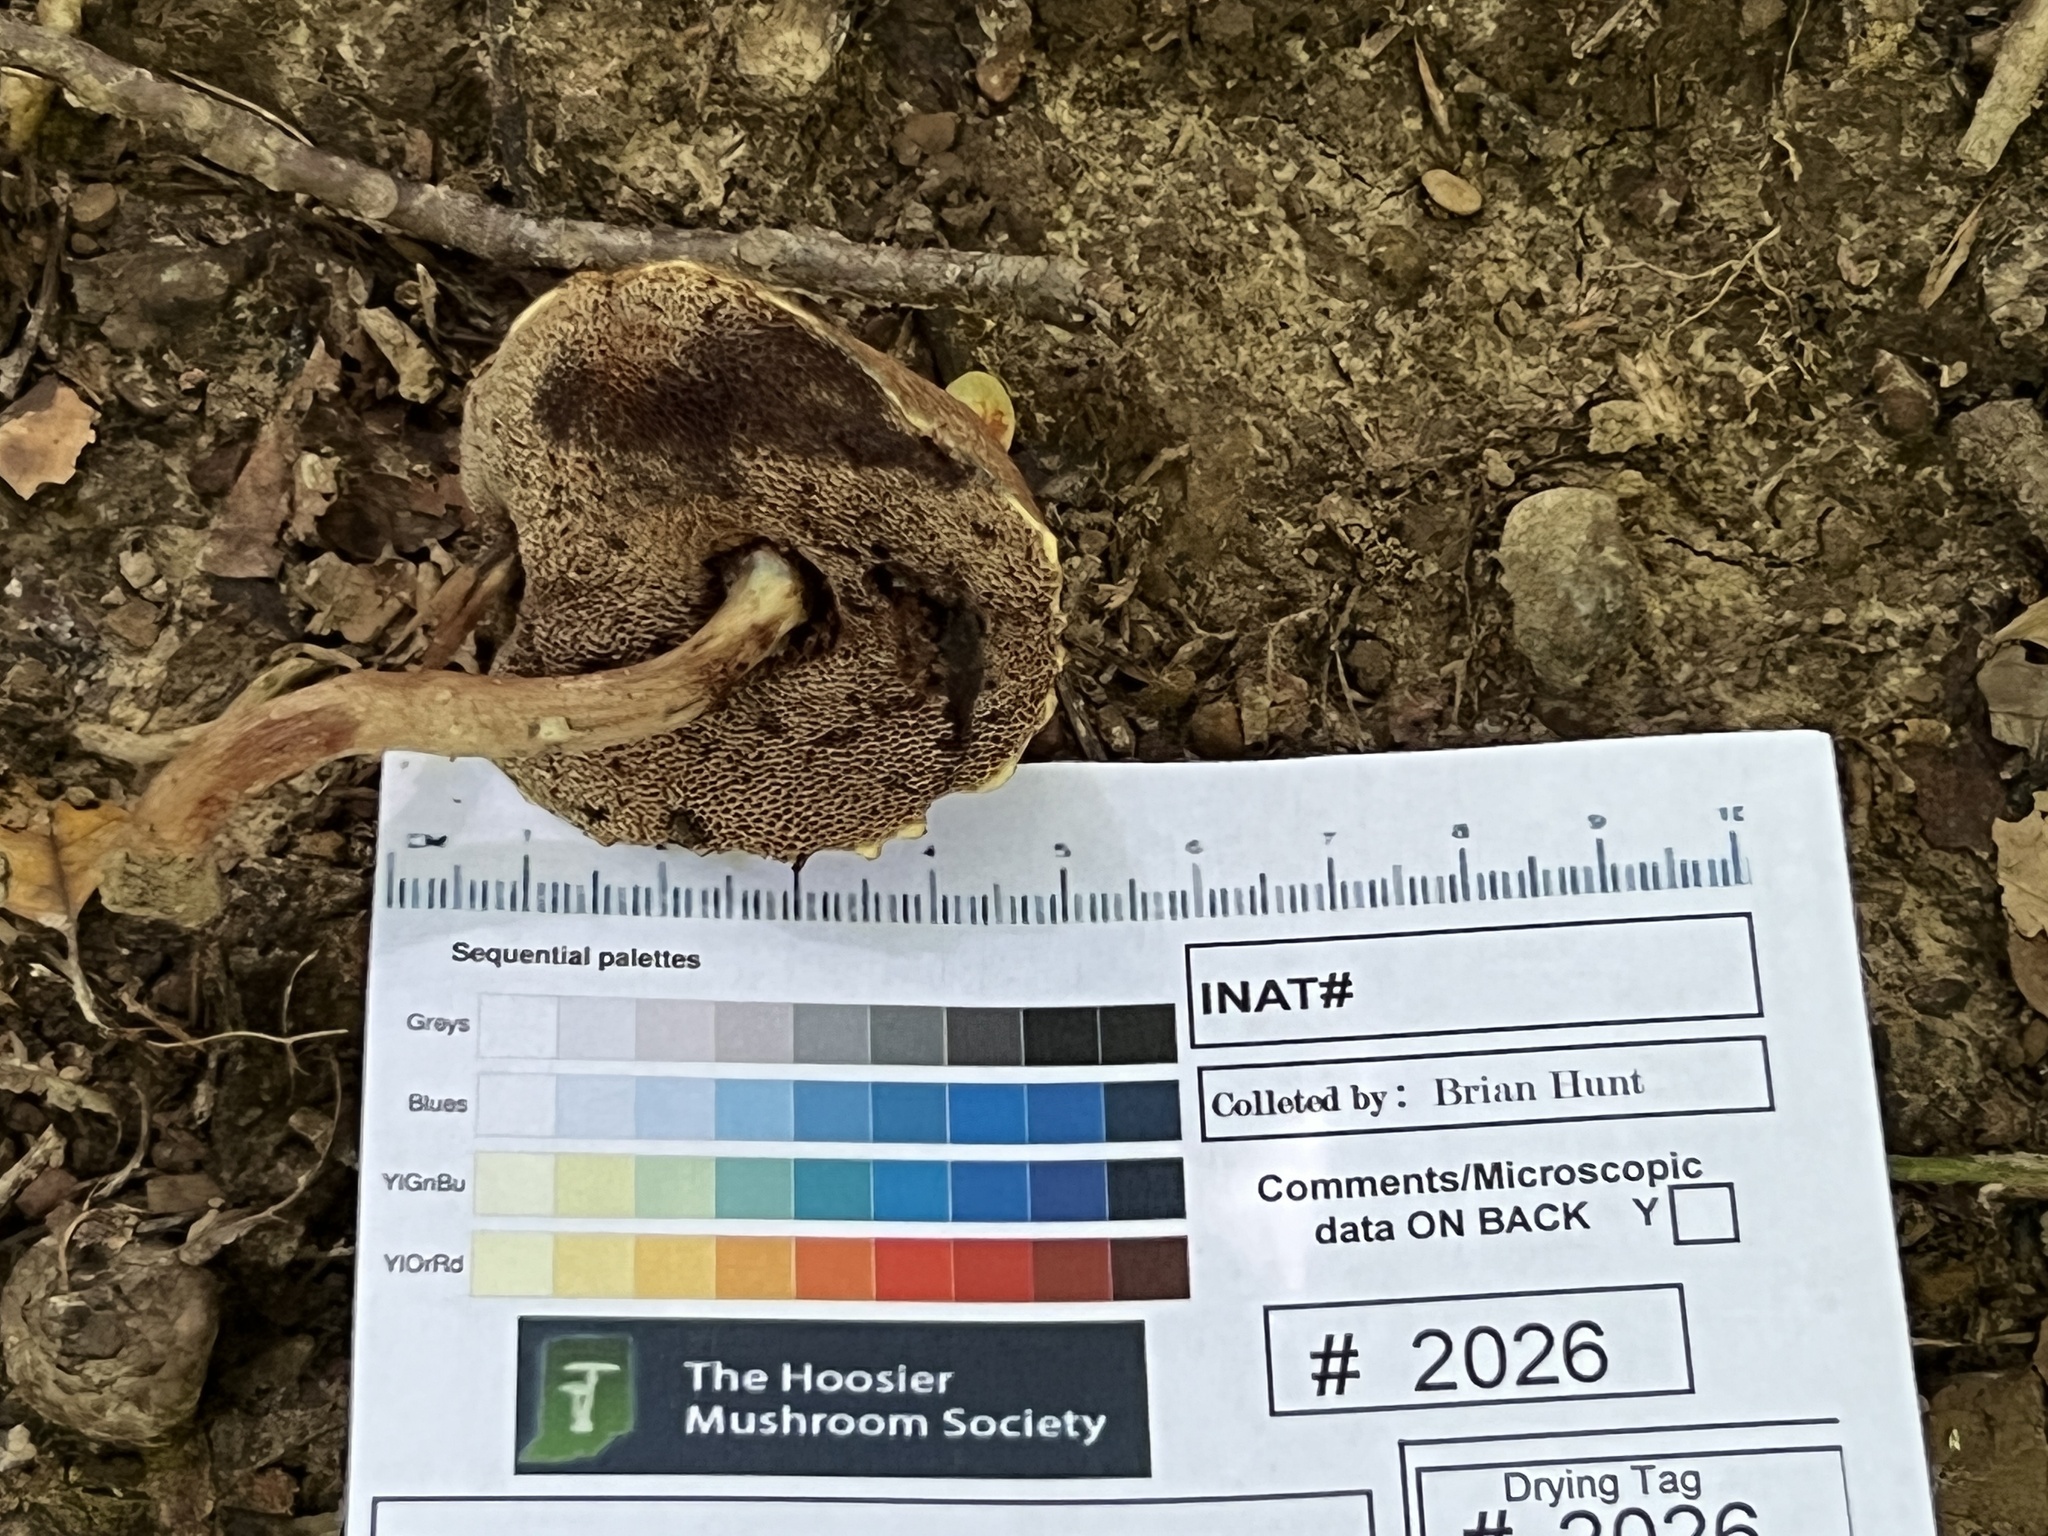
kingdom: Fungi
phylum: Basidiomycota
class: Agaricomycetes
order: Boletales
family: Boletaceae
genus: Porphyrellus
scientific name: Porphyrellus sordidus
